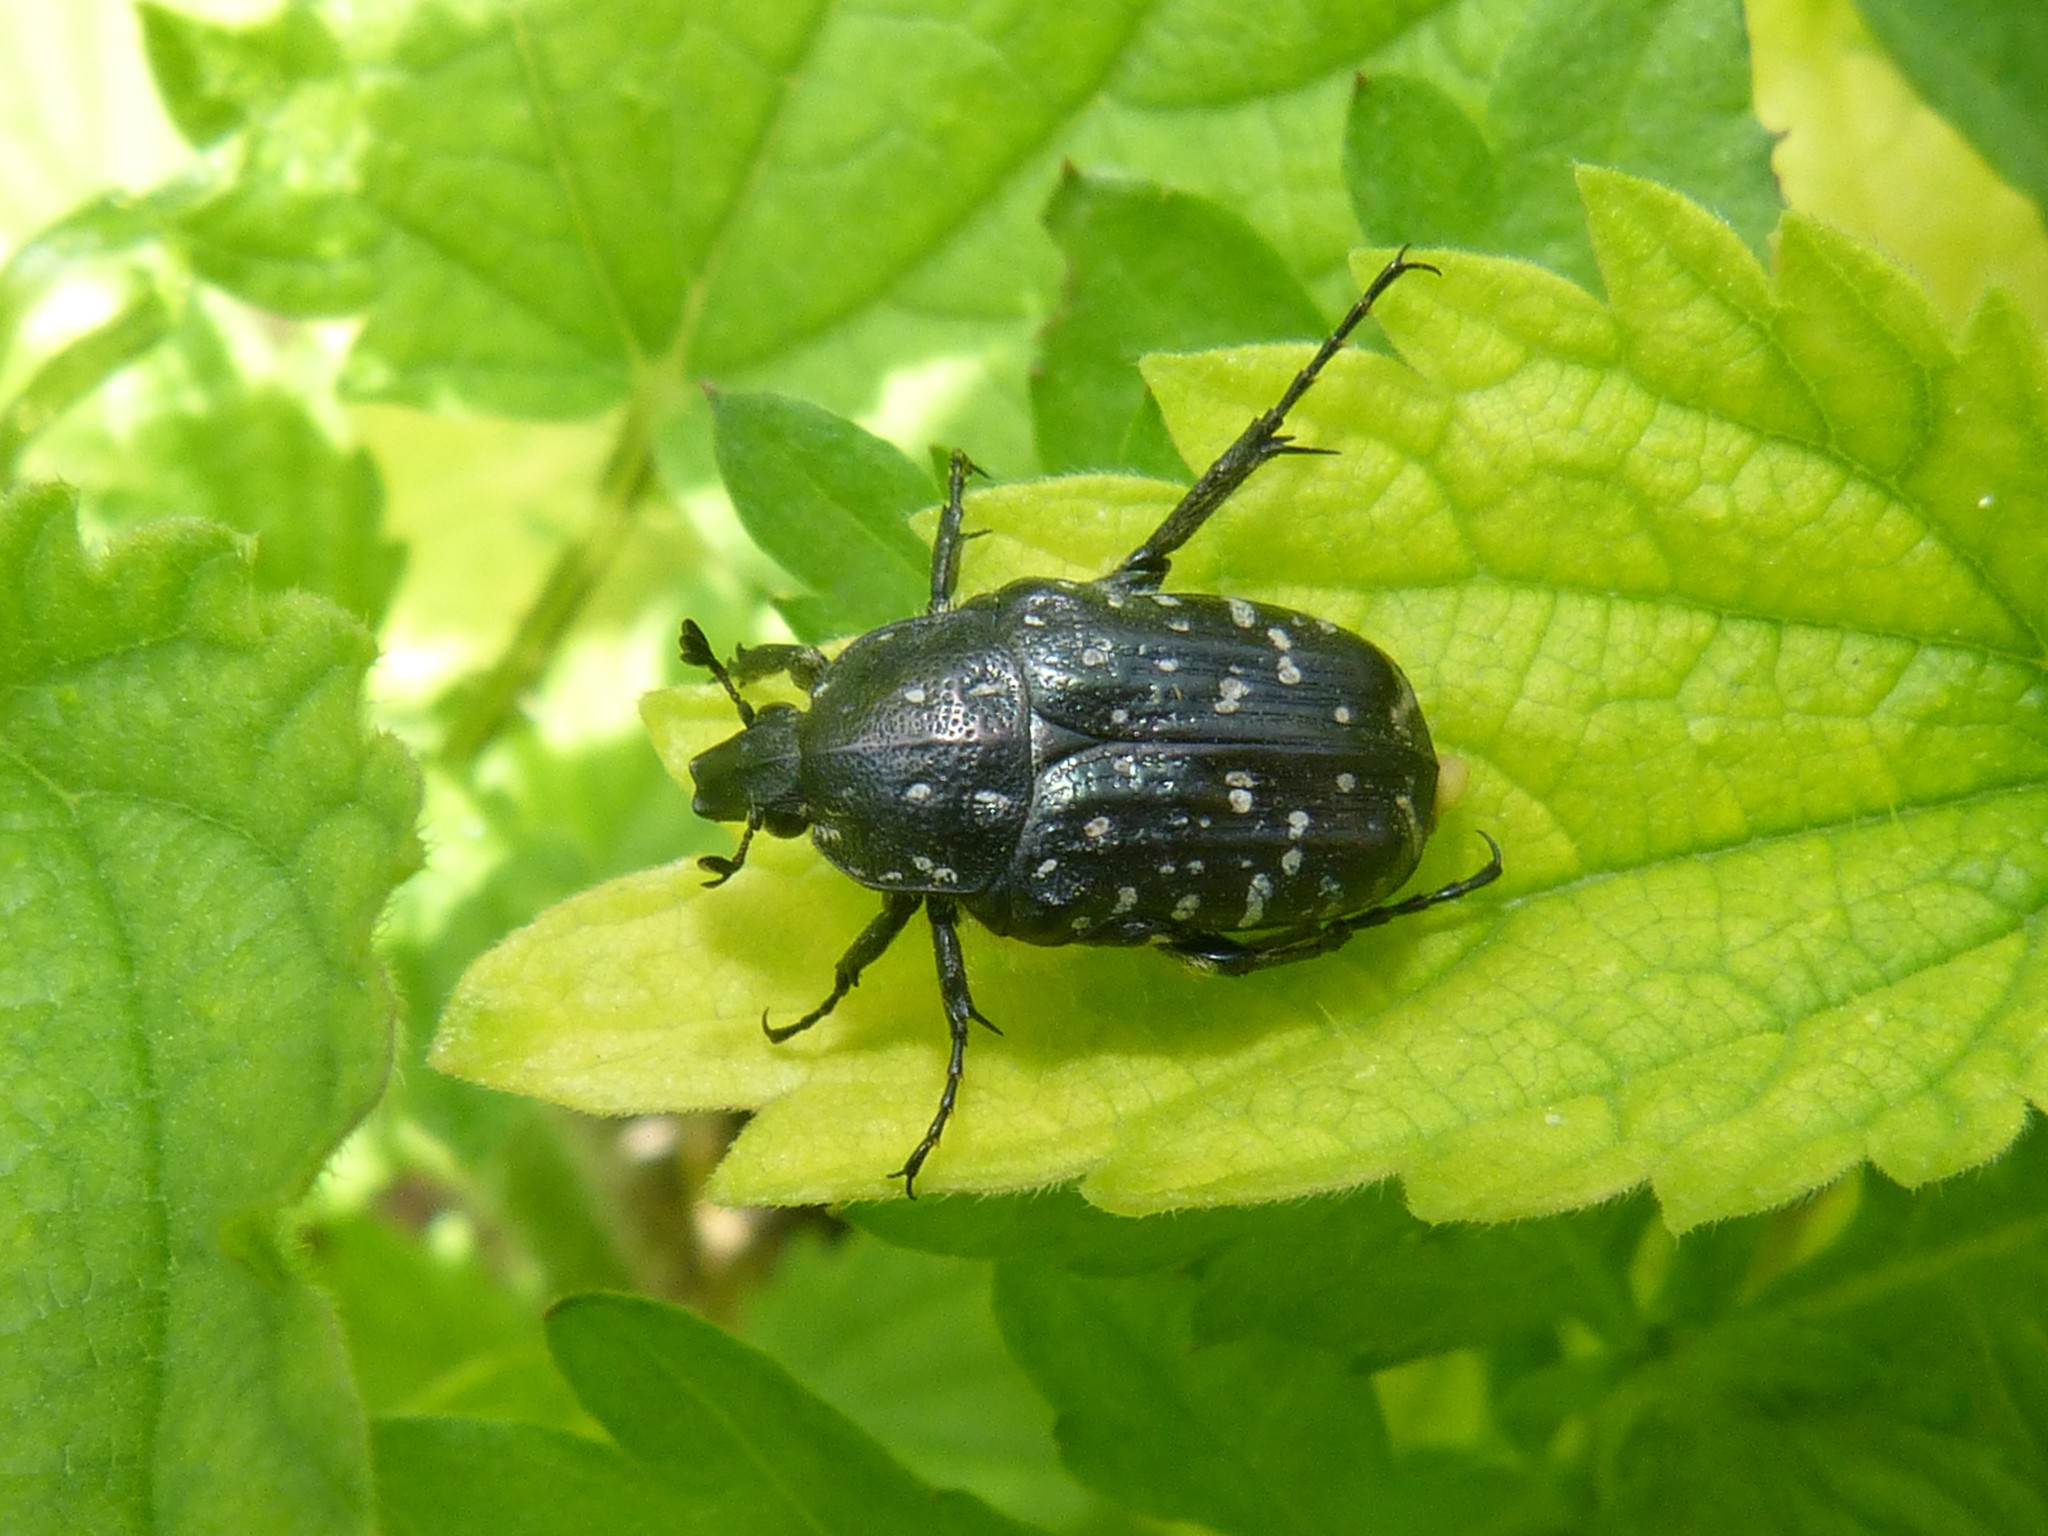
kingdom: Animalia
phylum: Arthropoda
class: Insecta
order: Coleoptera
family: Scarabaeidae
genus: Oxythyrea
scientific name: Oxythyrea funesta
